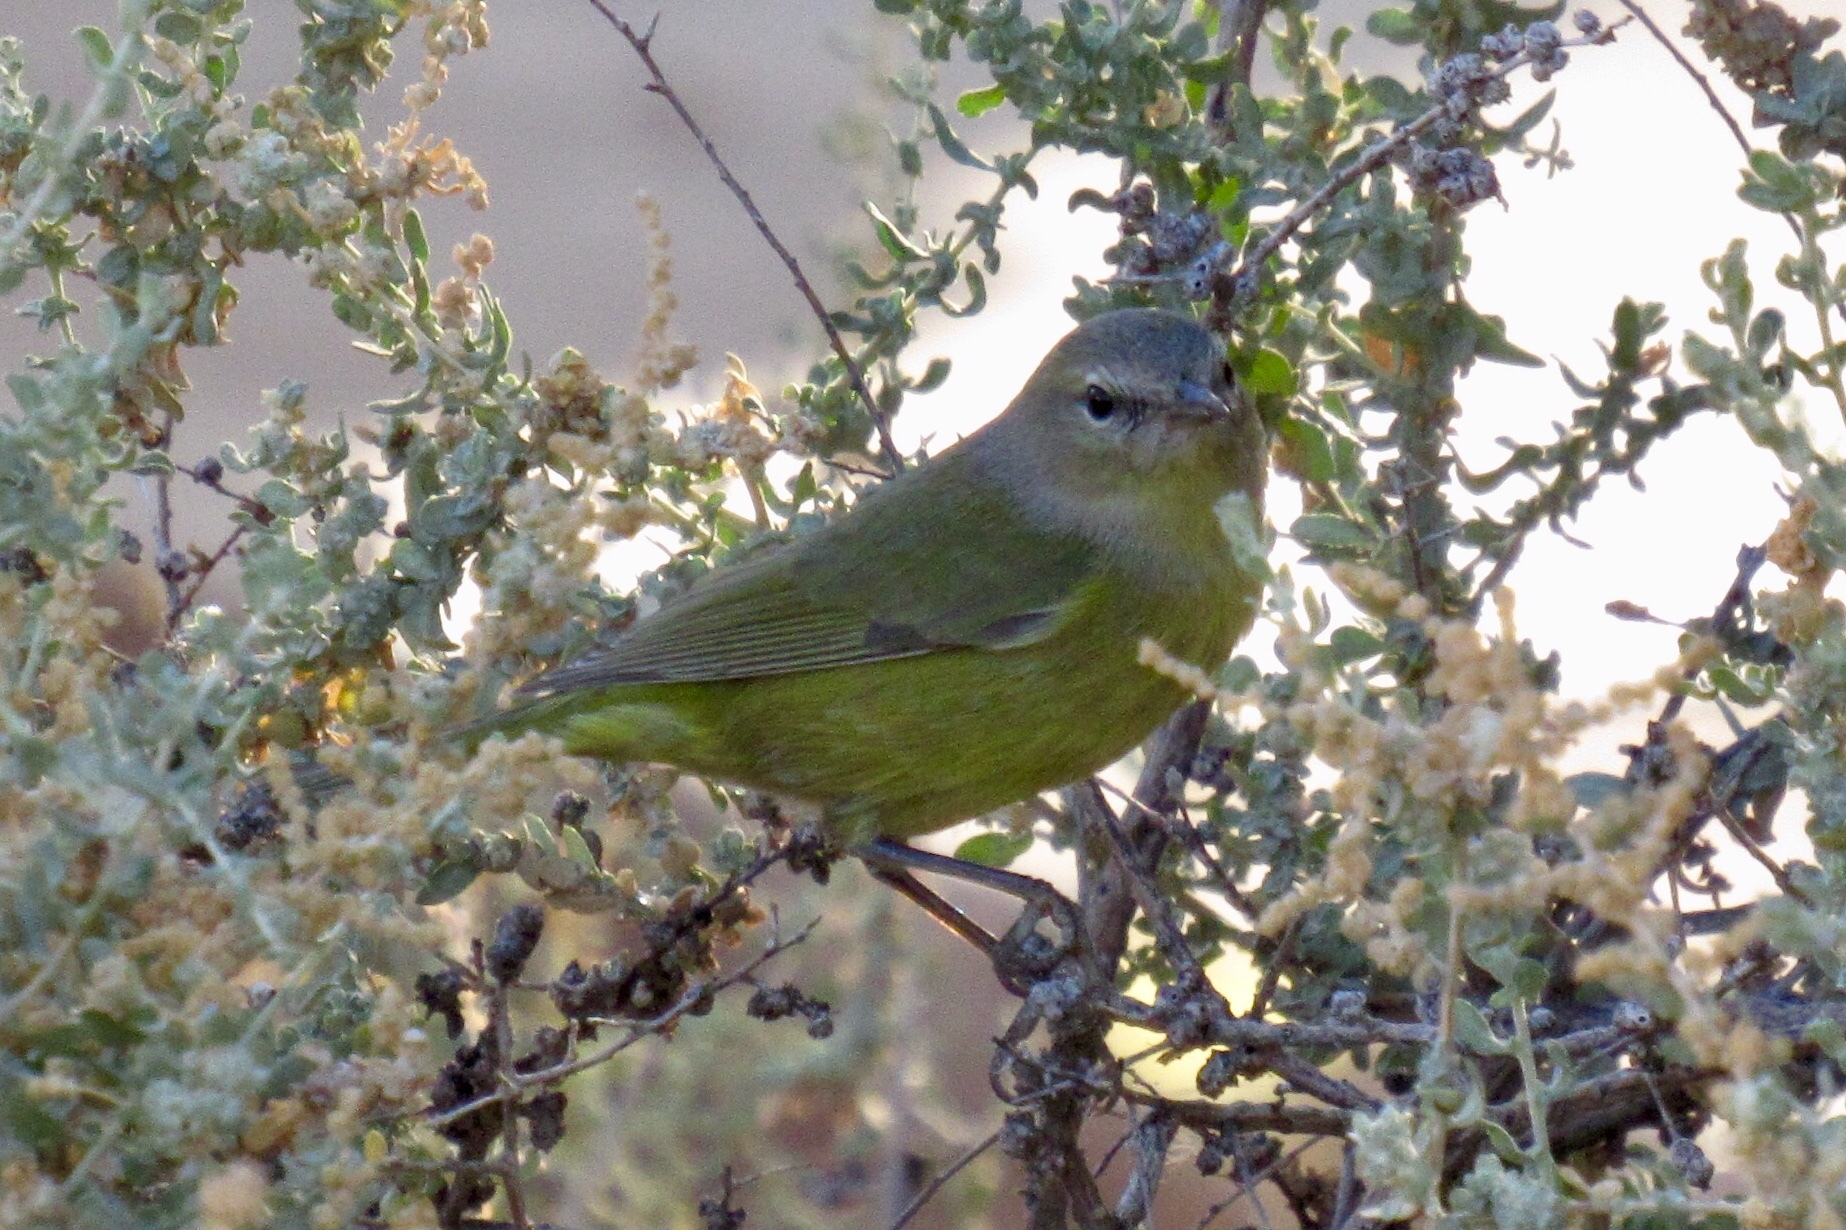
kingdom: Animalia
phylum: Chordata
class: Aves
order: Passeriformes
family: Parulidae
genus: Leiothlypis
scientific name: Leiothlypis celata
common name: Orange-crowned warbler
